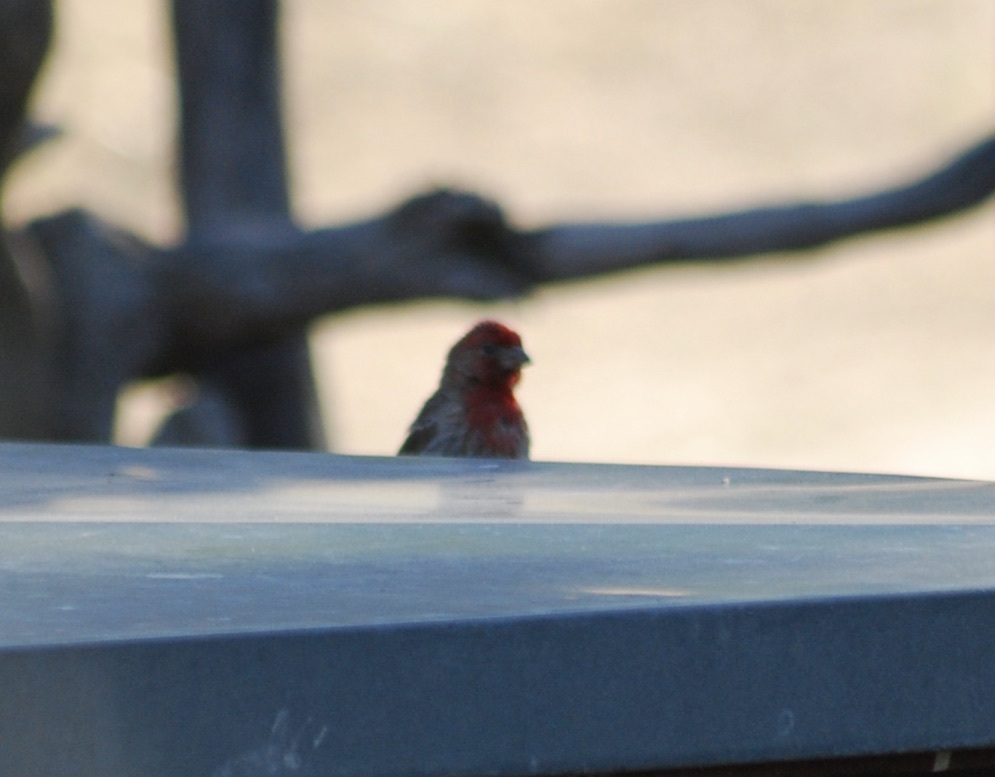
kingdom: Animalia
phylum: Chordata
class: Aves
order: Passeriformes
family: Fringillidae
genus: Haemorhous
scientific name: Haemorhous mexicanus
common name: House finch
